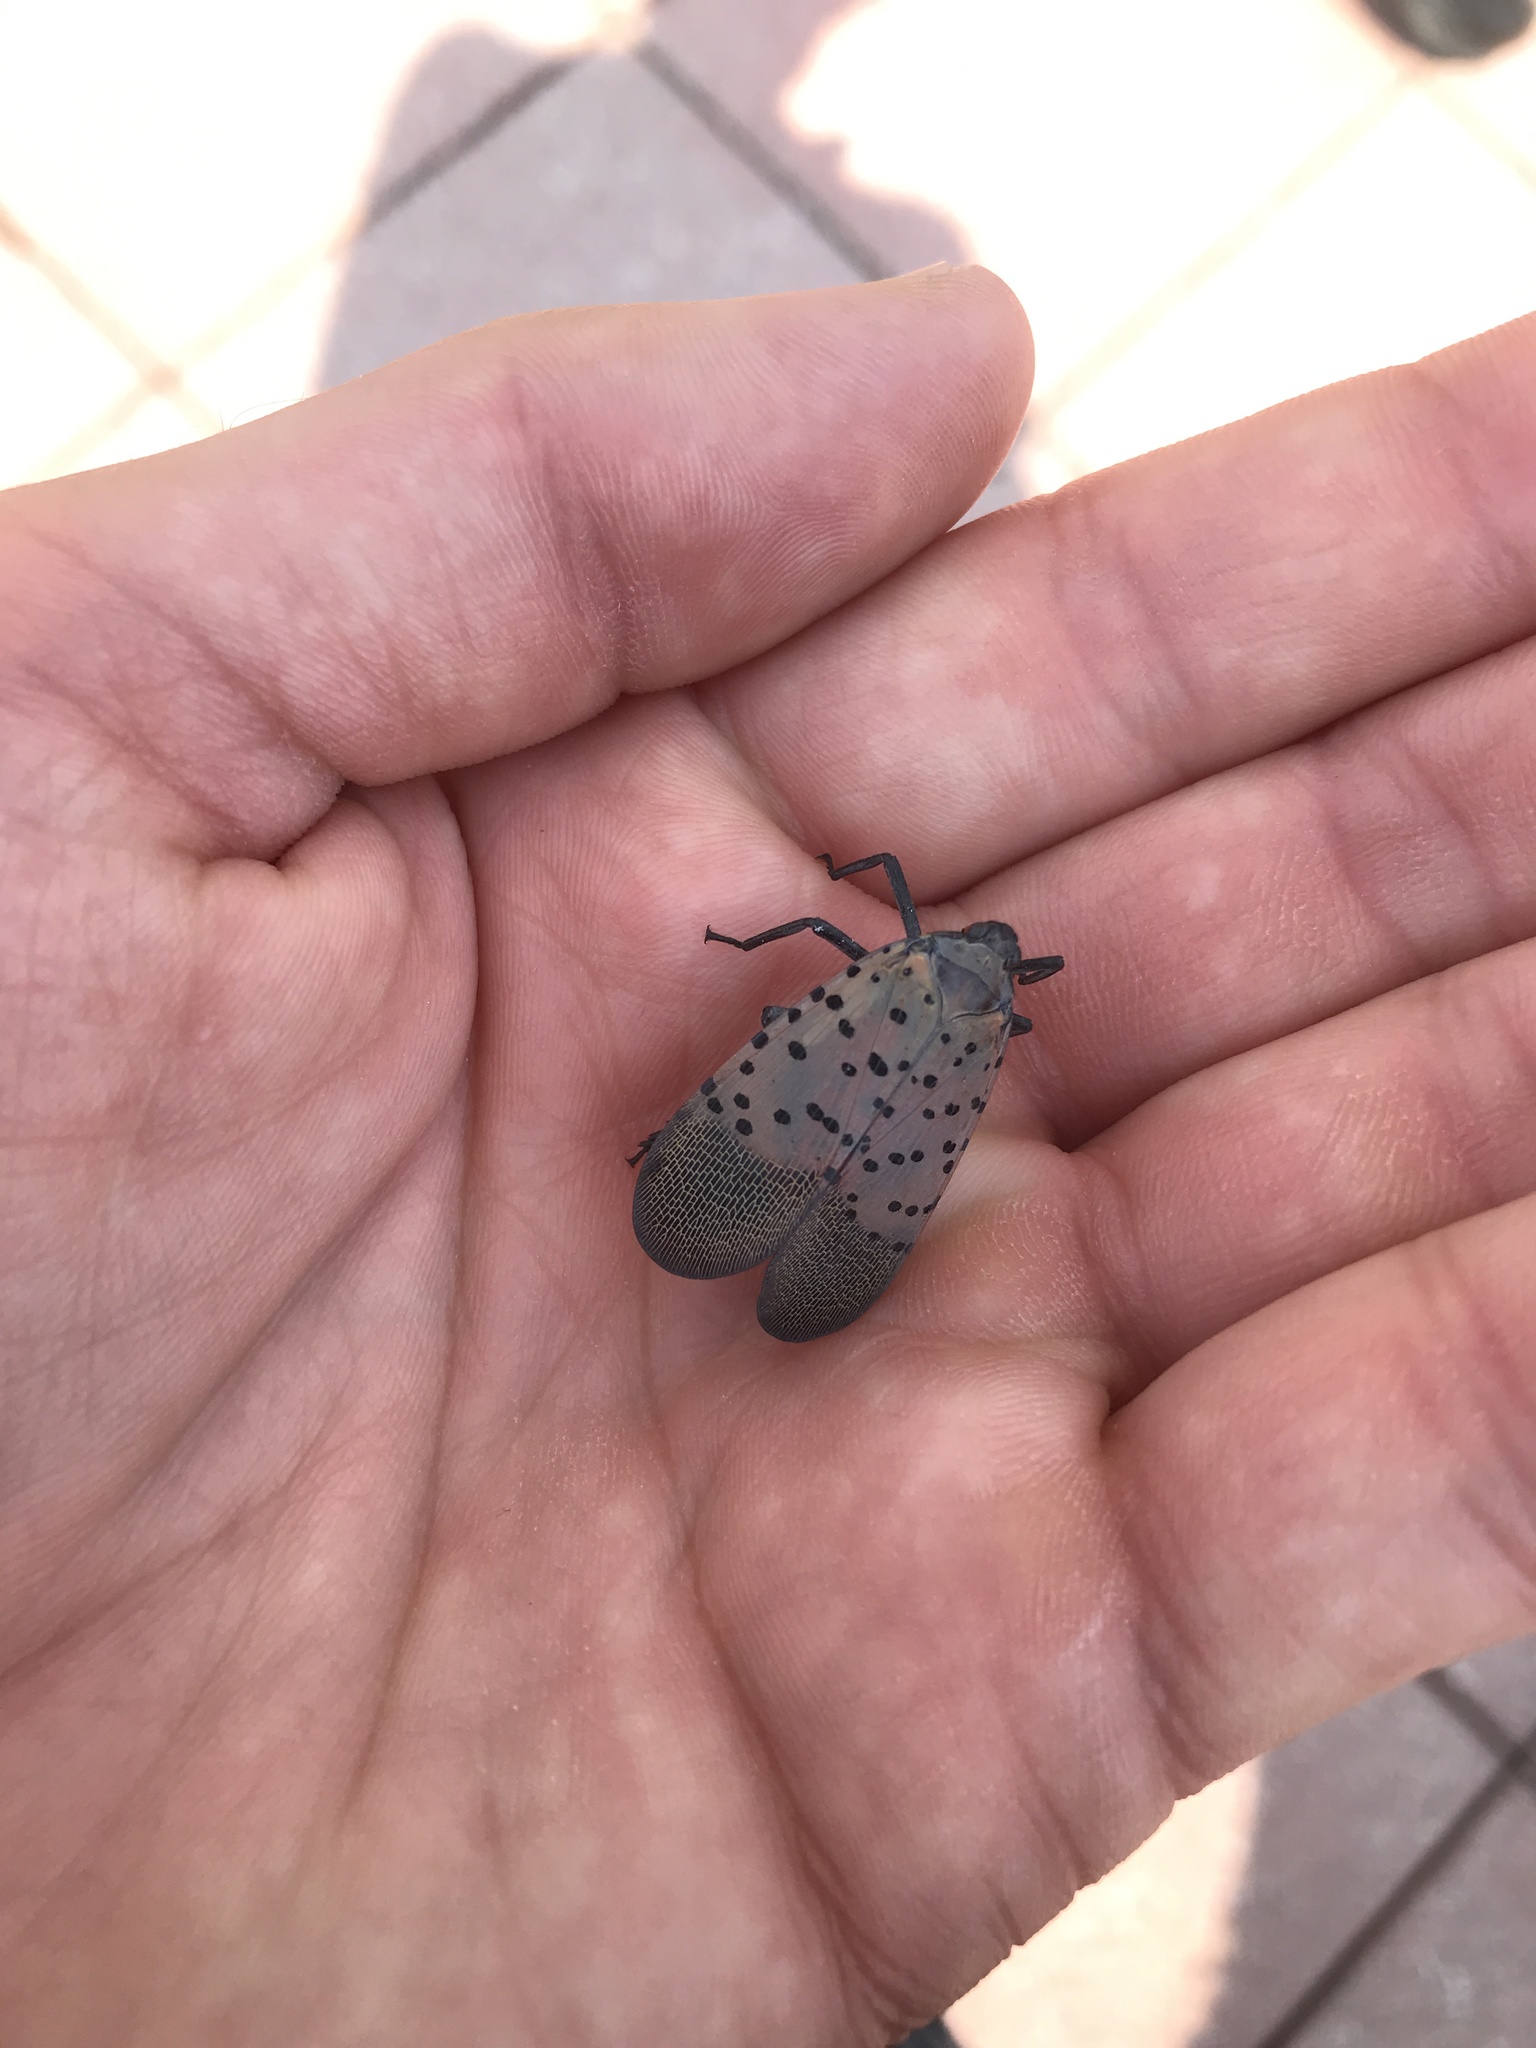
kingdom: Animalia
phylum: Arthropoda
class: Insecta
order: Hemiptera
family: Fulgoridae
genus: Lycorma
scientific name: Lycorma delicatula
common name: Spotted lanternfly
